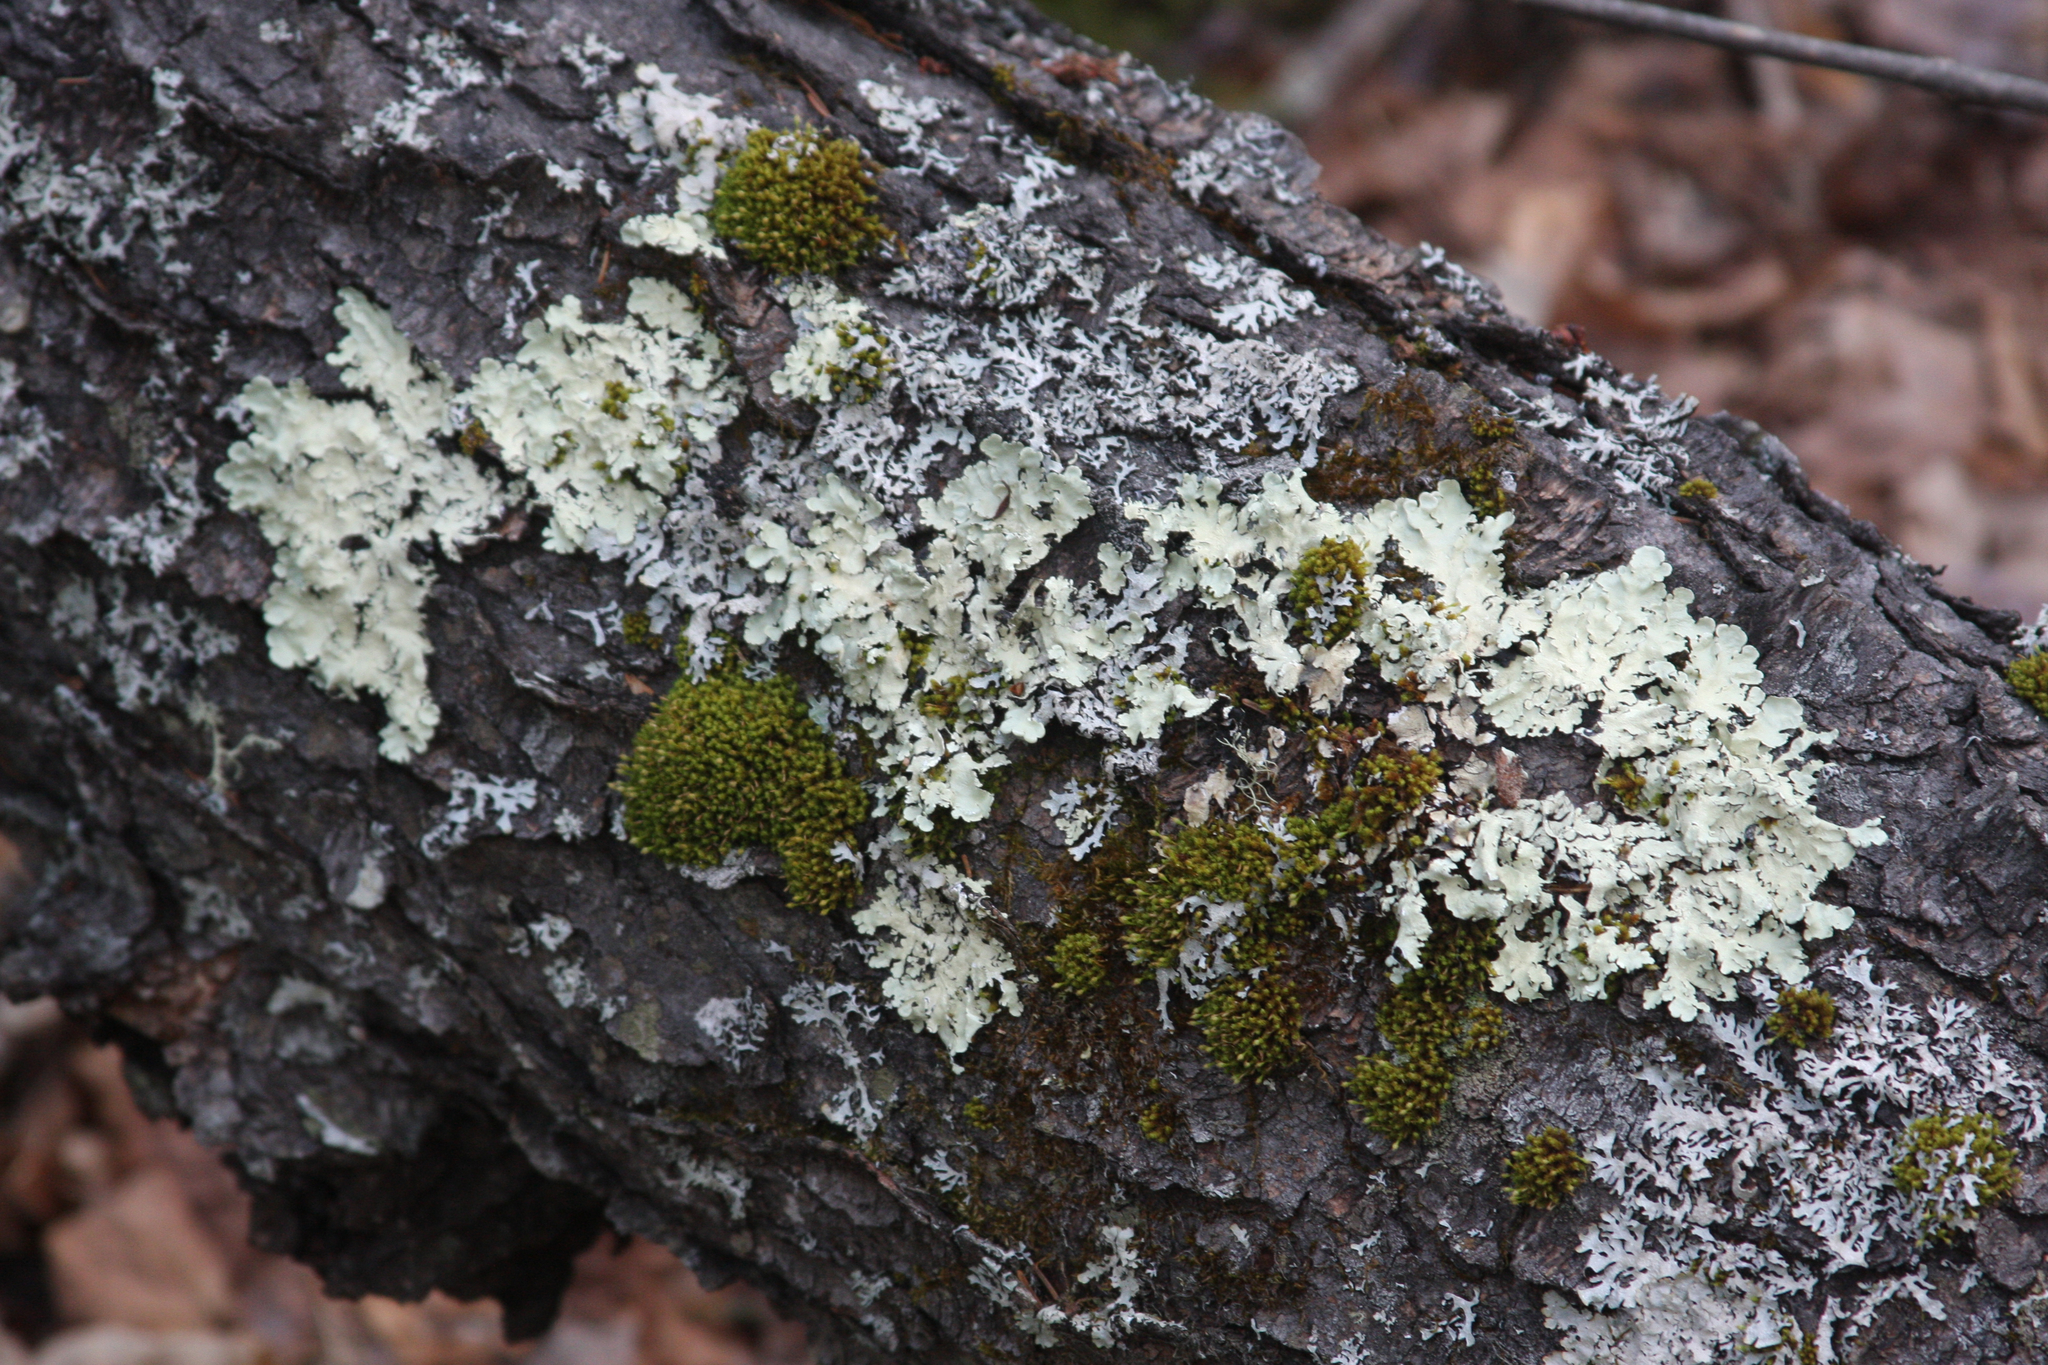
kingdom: Plantae
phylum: Bryophyta
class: Bryopsida
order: Orthotrichales
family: Orthotrichaceae
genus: Ulota
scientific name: Ulota crispa
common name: Crisped pincushion moss
